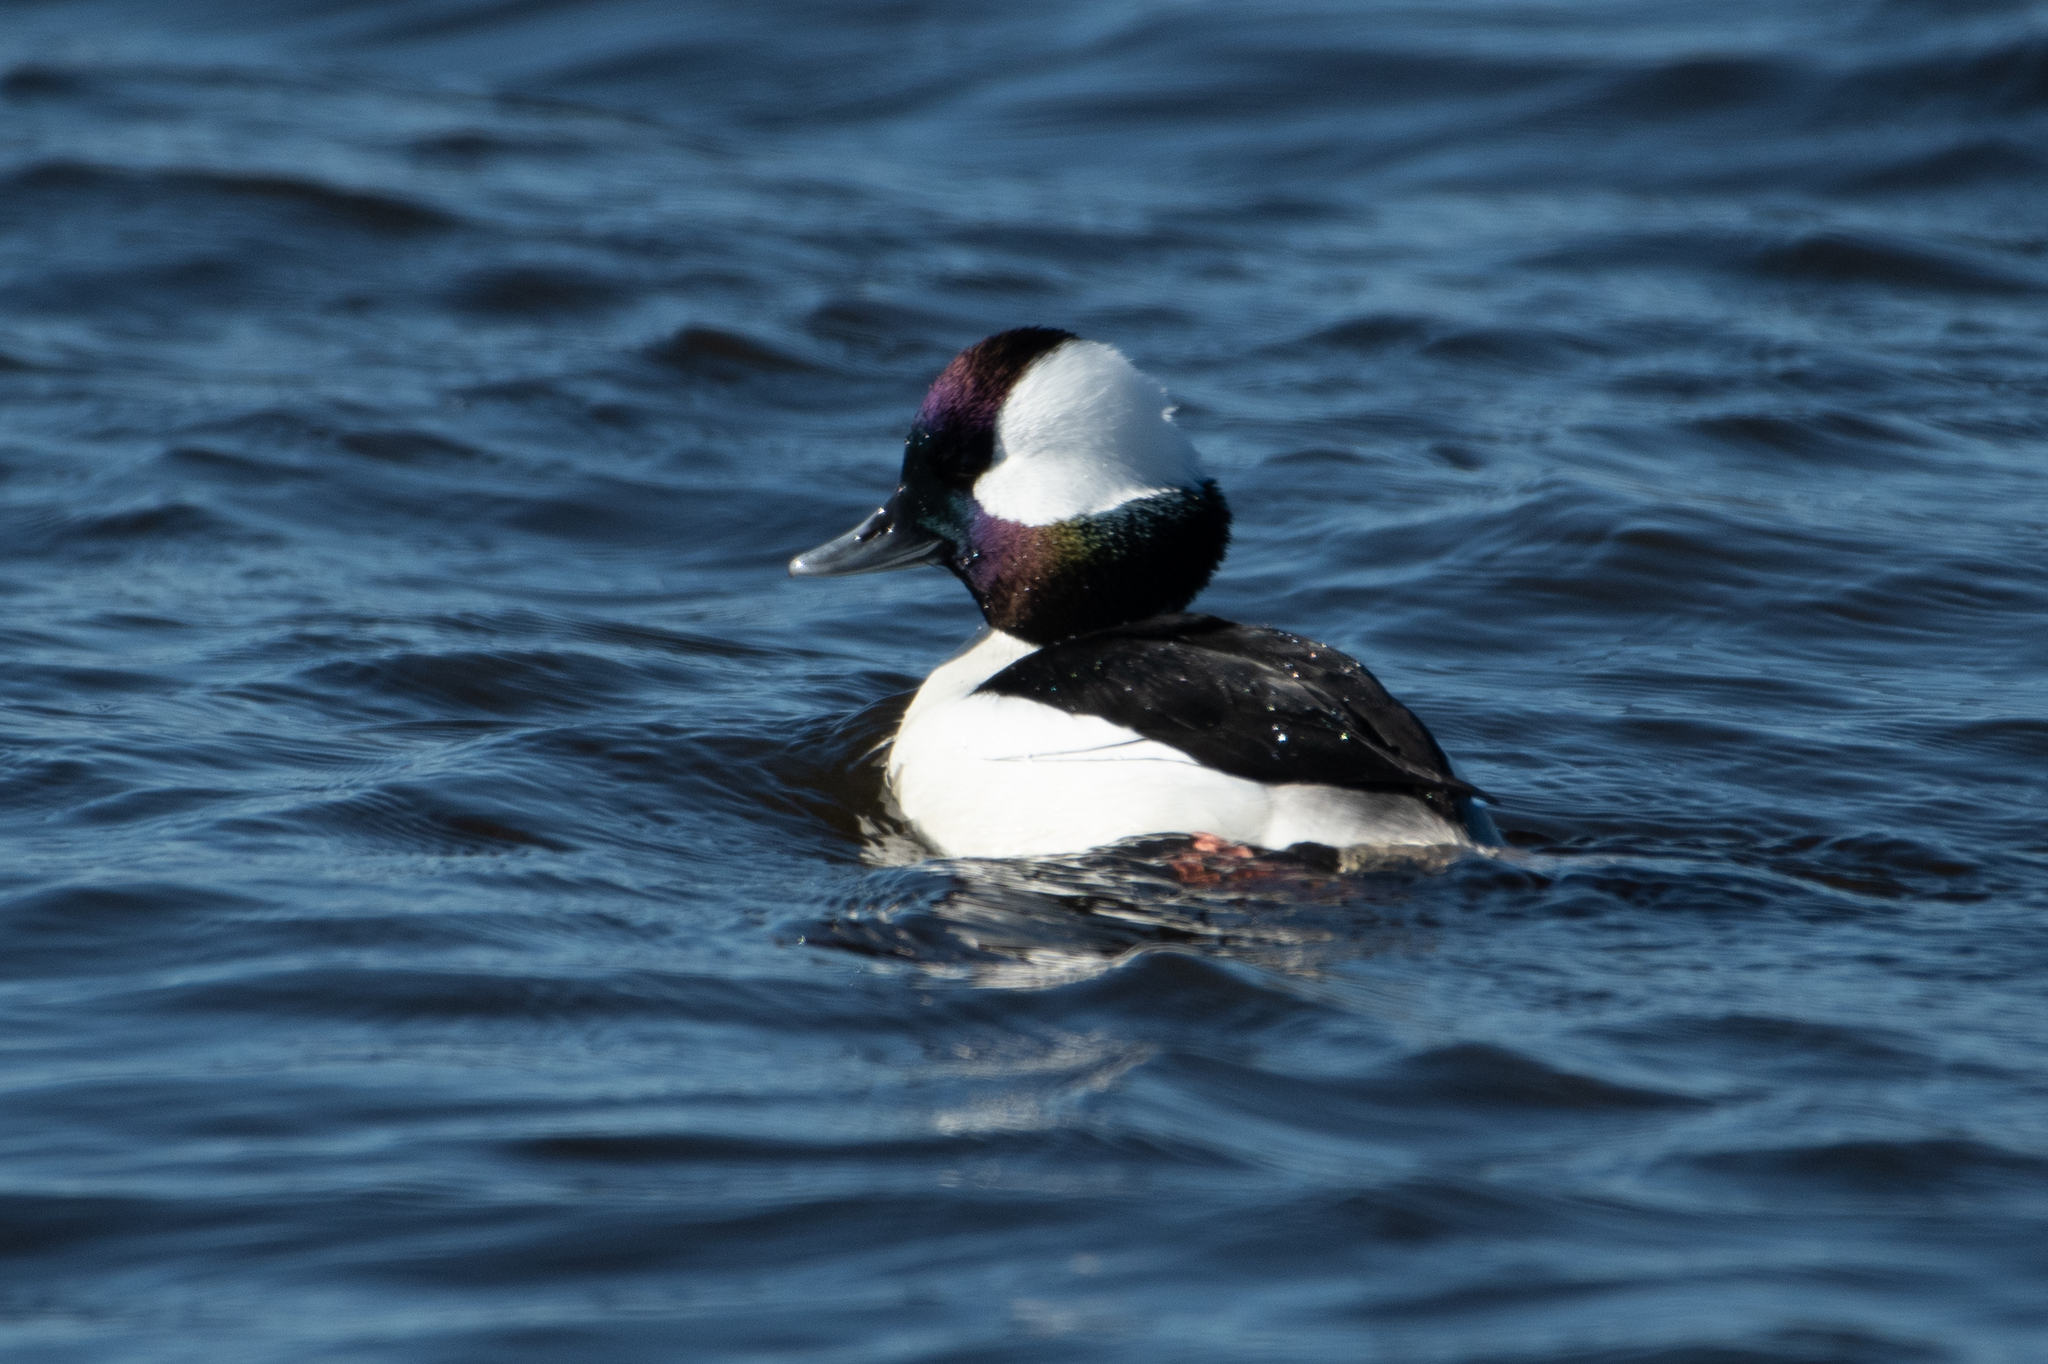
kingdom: Animalia
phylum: Chordata
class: Aves
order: Anseriformes
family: Anatidae
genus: Bucephala
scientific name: Bucephala albeola
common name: Bufflehead
